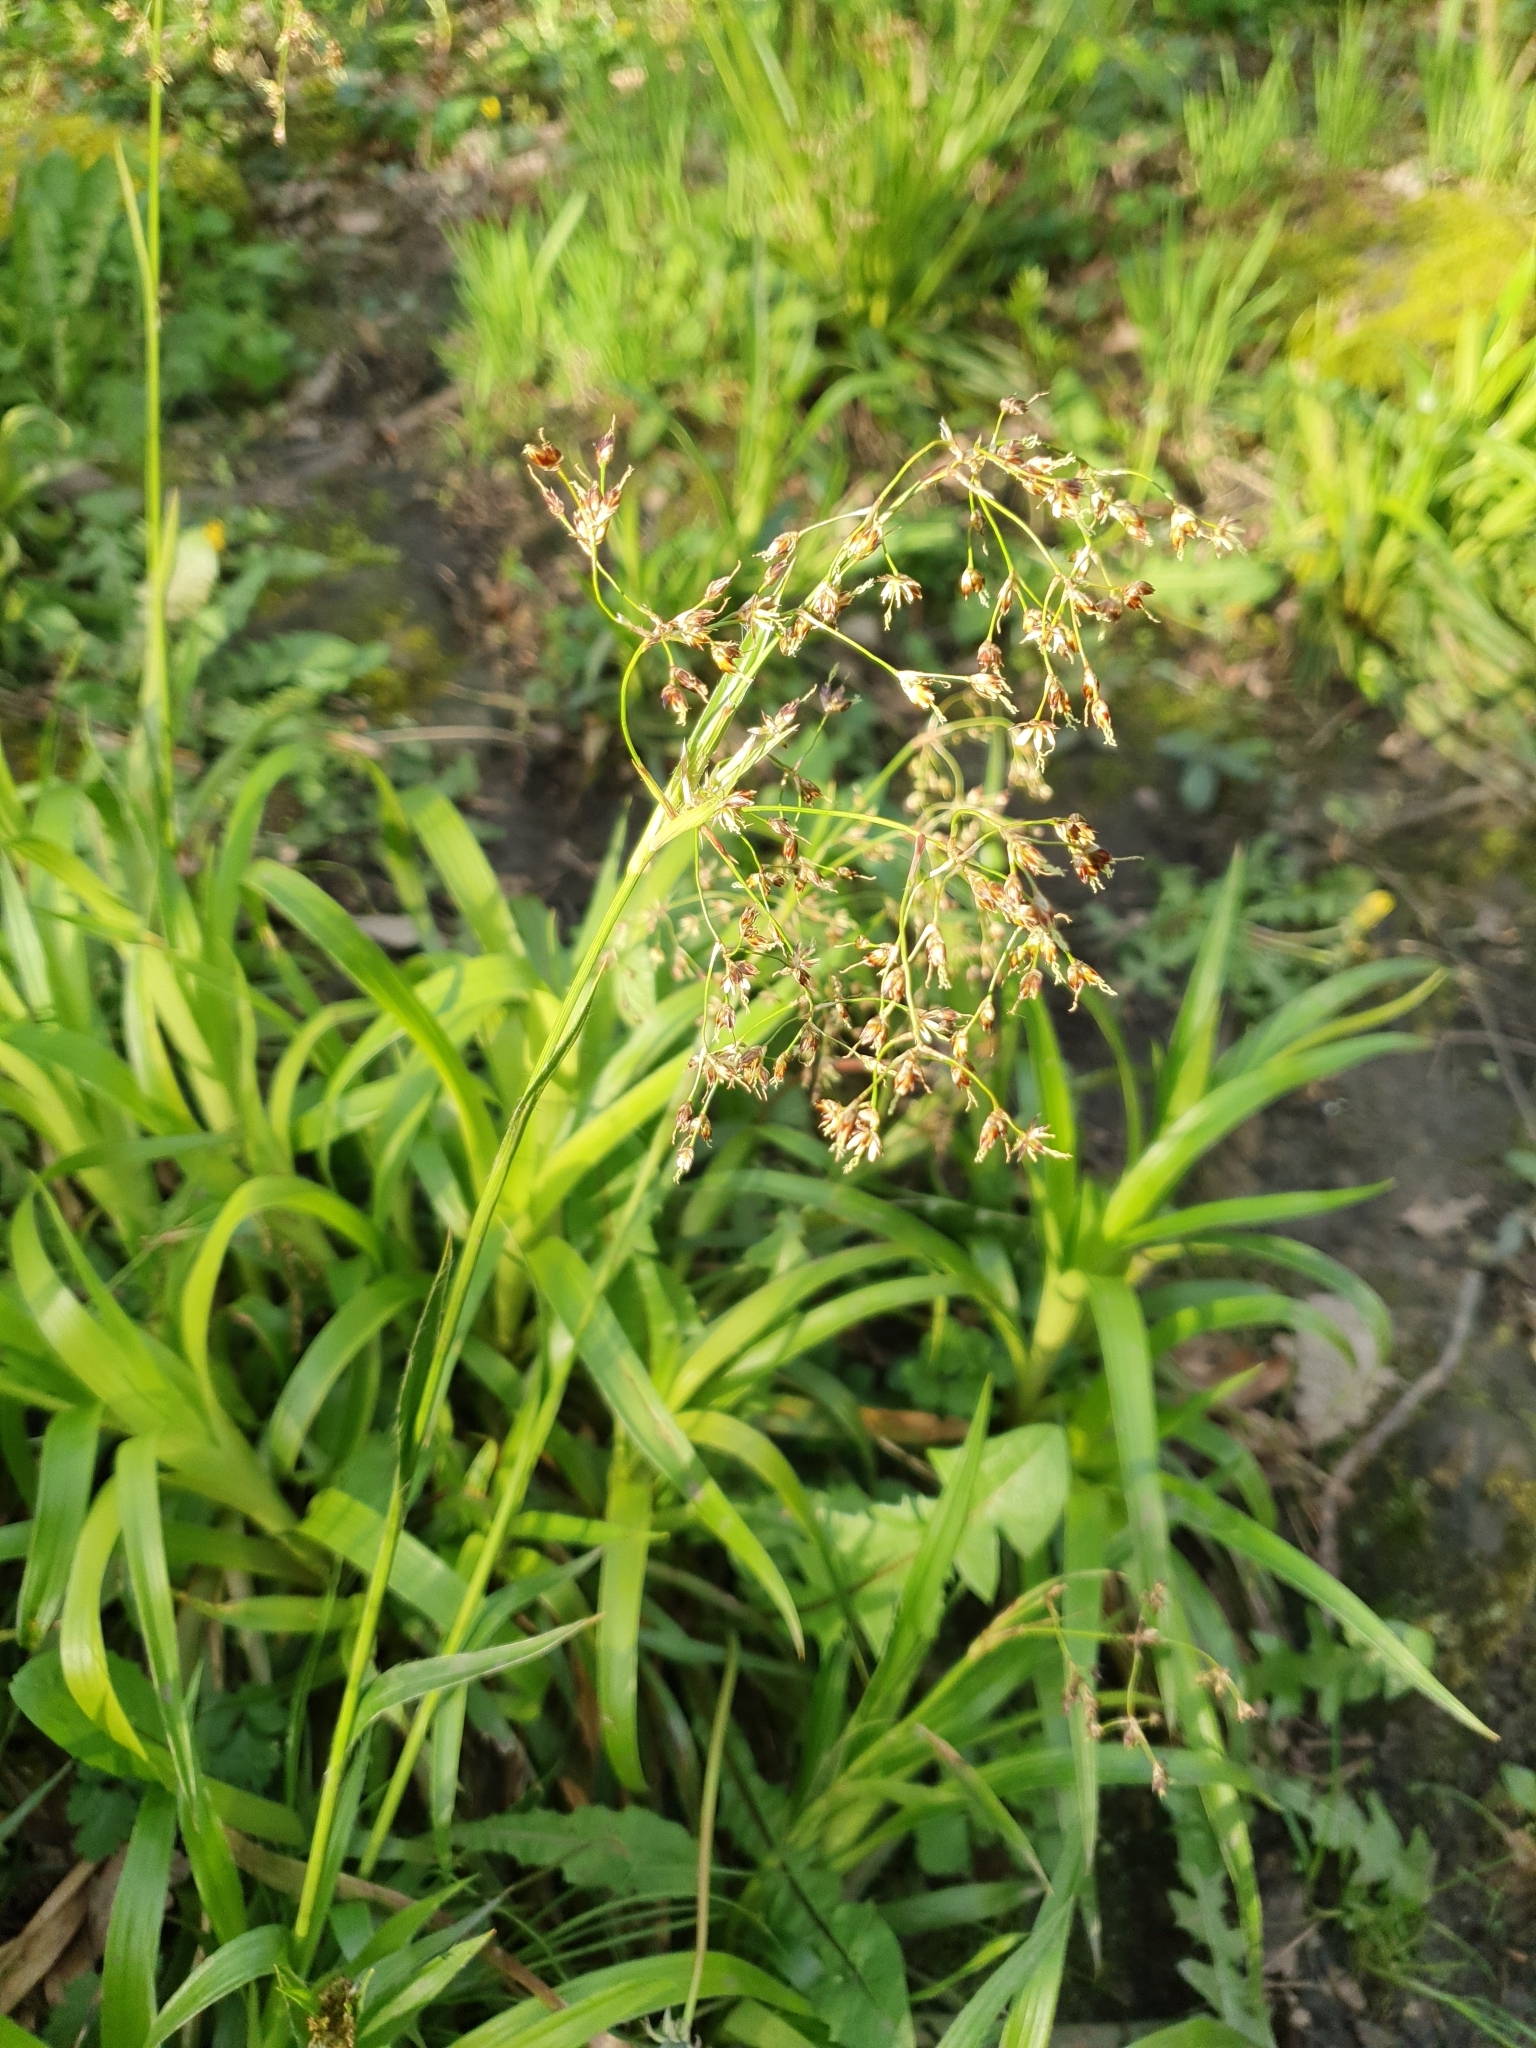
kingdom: Plantae
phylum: Tracheophyta
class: Liliopsida
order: Poales
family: Juncaceae
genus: Luzula
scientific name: Luzula sylvatica
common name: Great wood-rush
